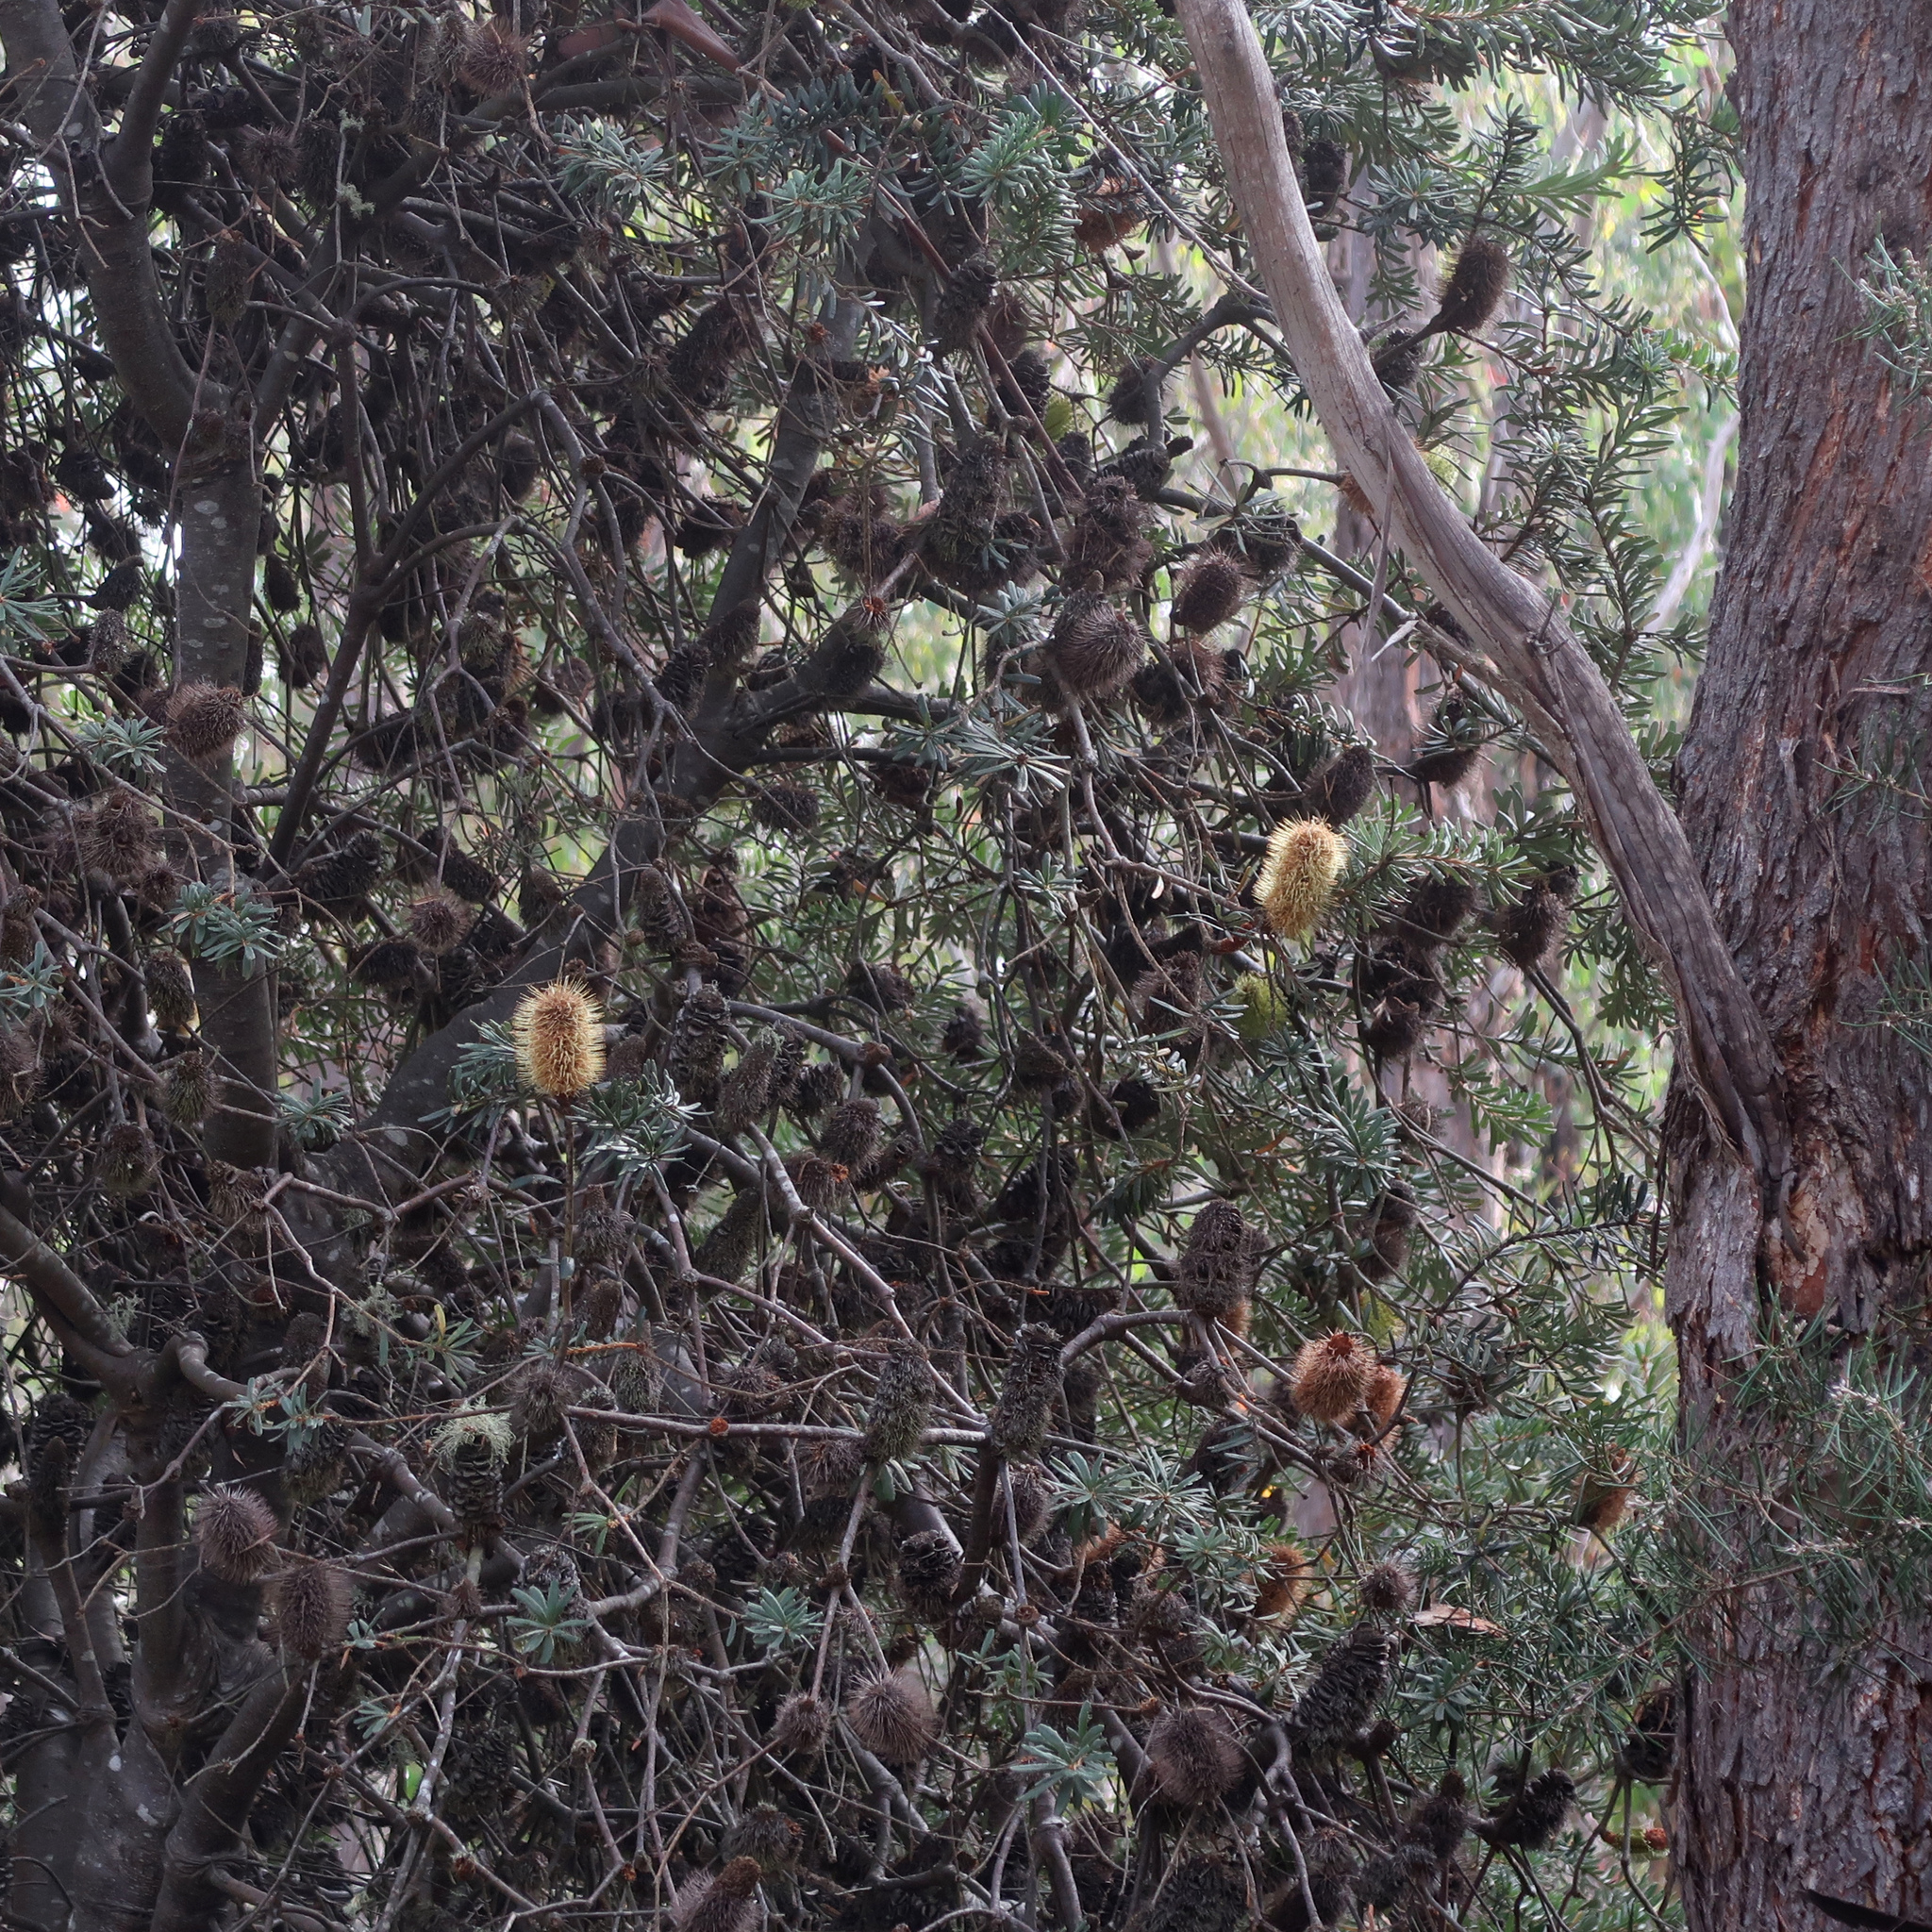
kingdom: Plantae
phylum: Tracheophyta
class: Magnoliopsida
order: Proteales
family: Proteaceae
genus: Banksia
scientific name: Banksia marginata
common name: Silver banksia
